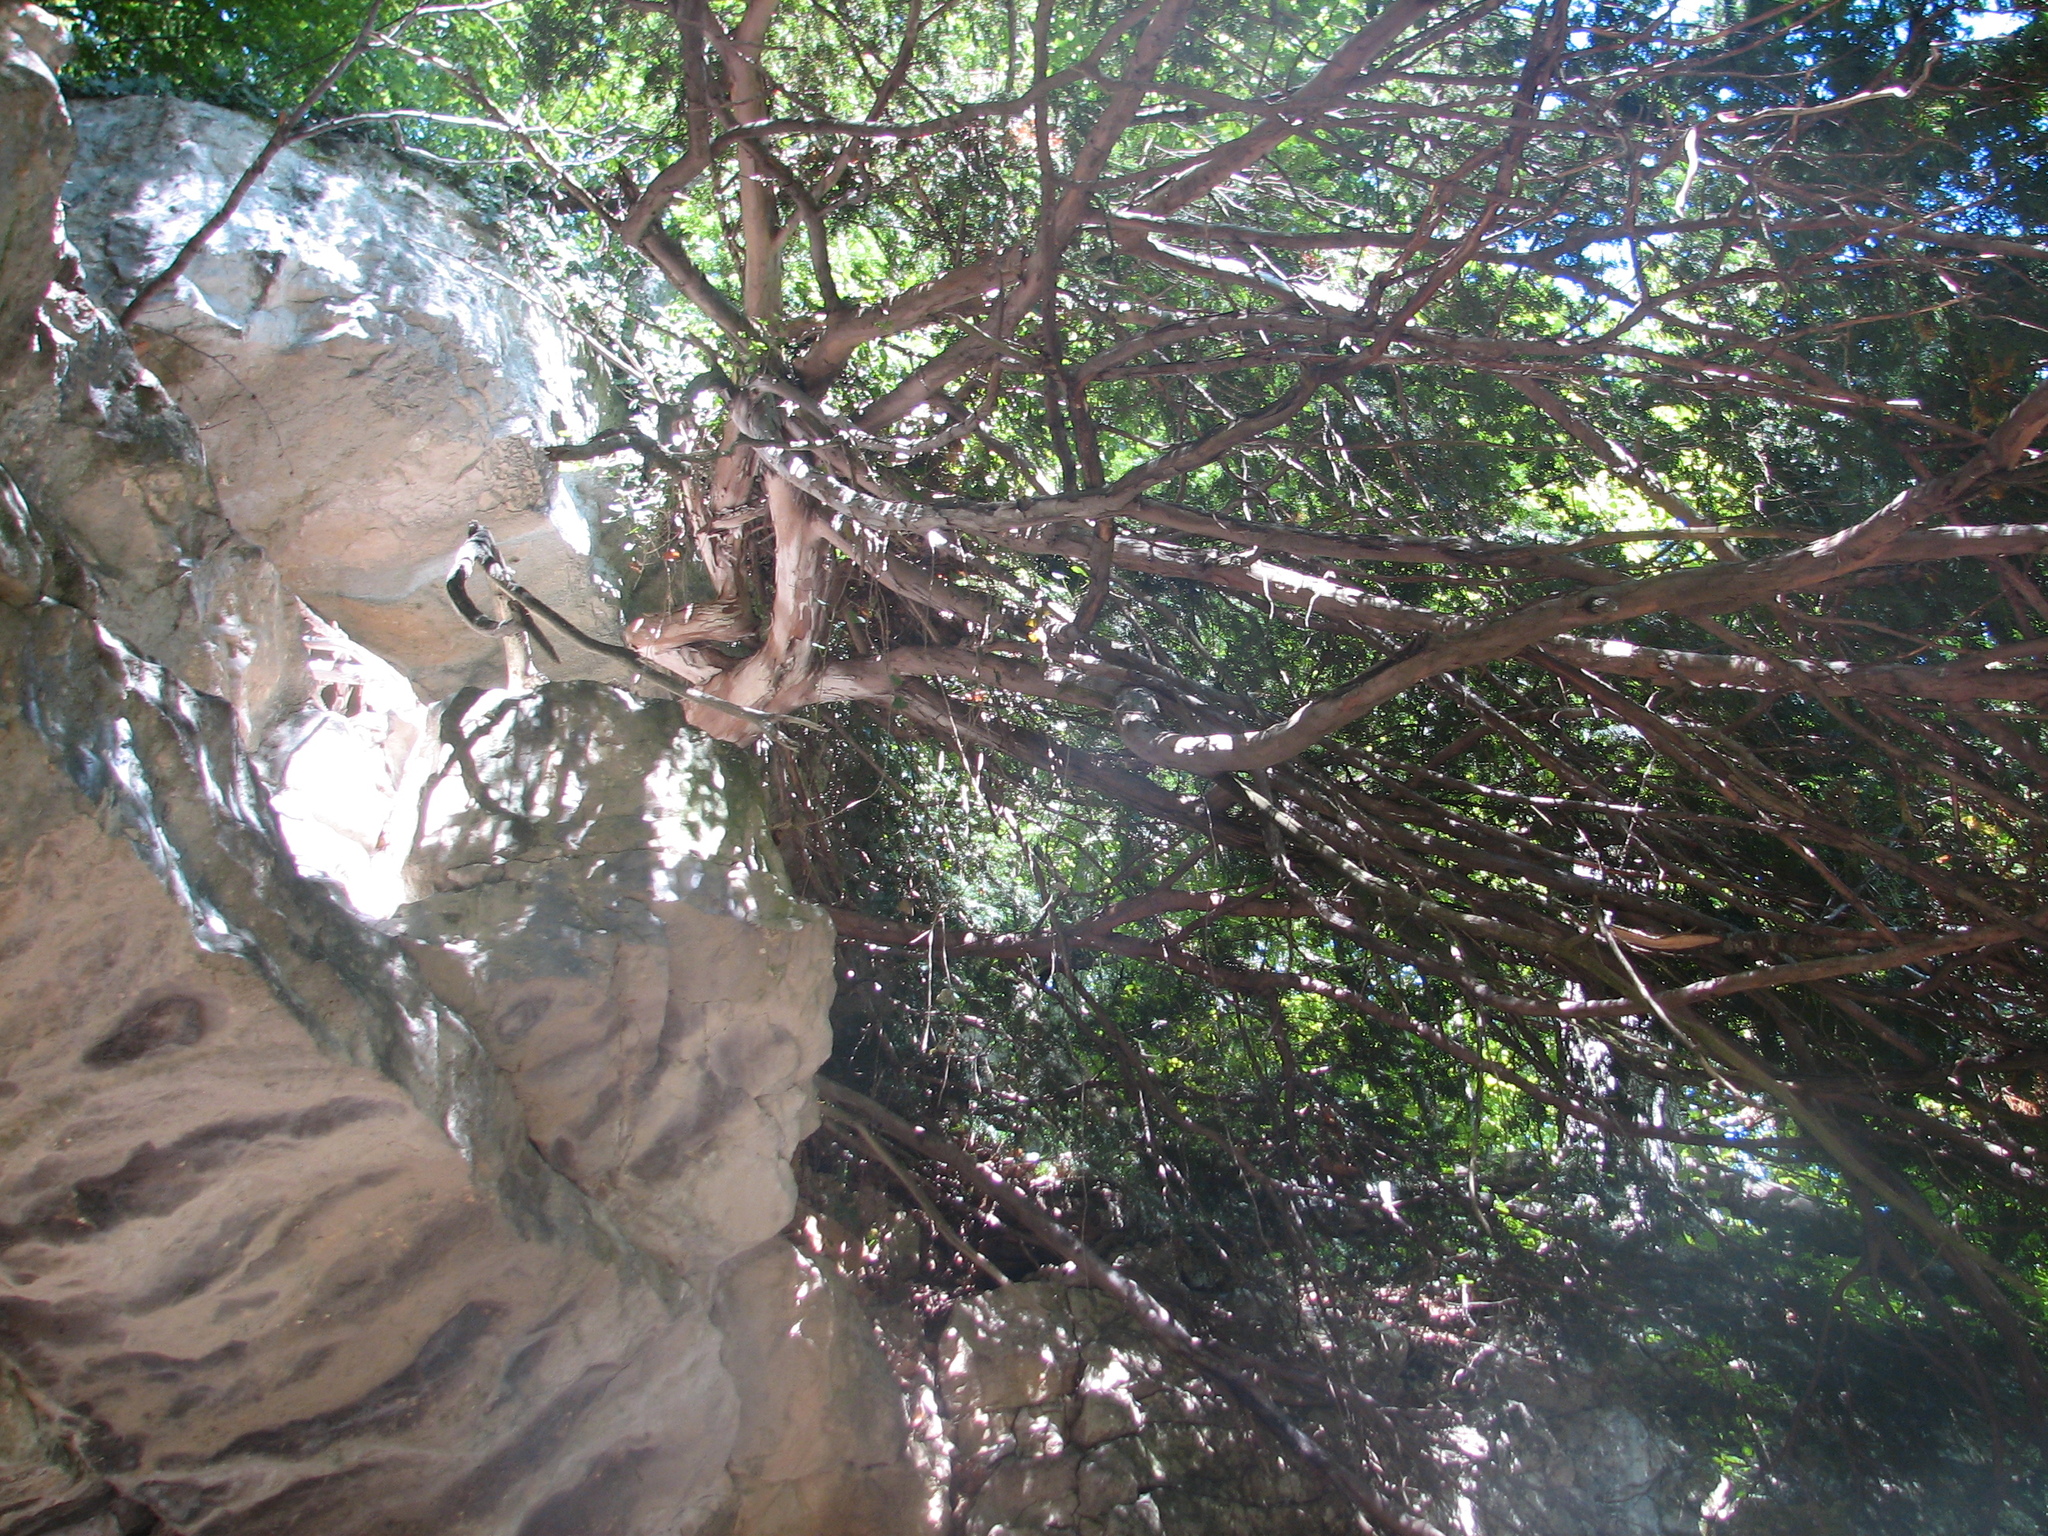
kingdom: Plantae
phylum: Tracheophyta
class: Pinopsida
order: Pinales
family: Taxaceae
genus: Taxus
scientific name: Taxus baccata
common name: Yew
